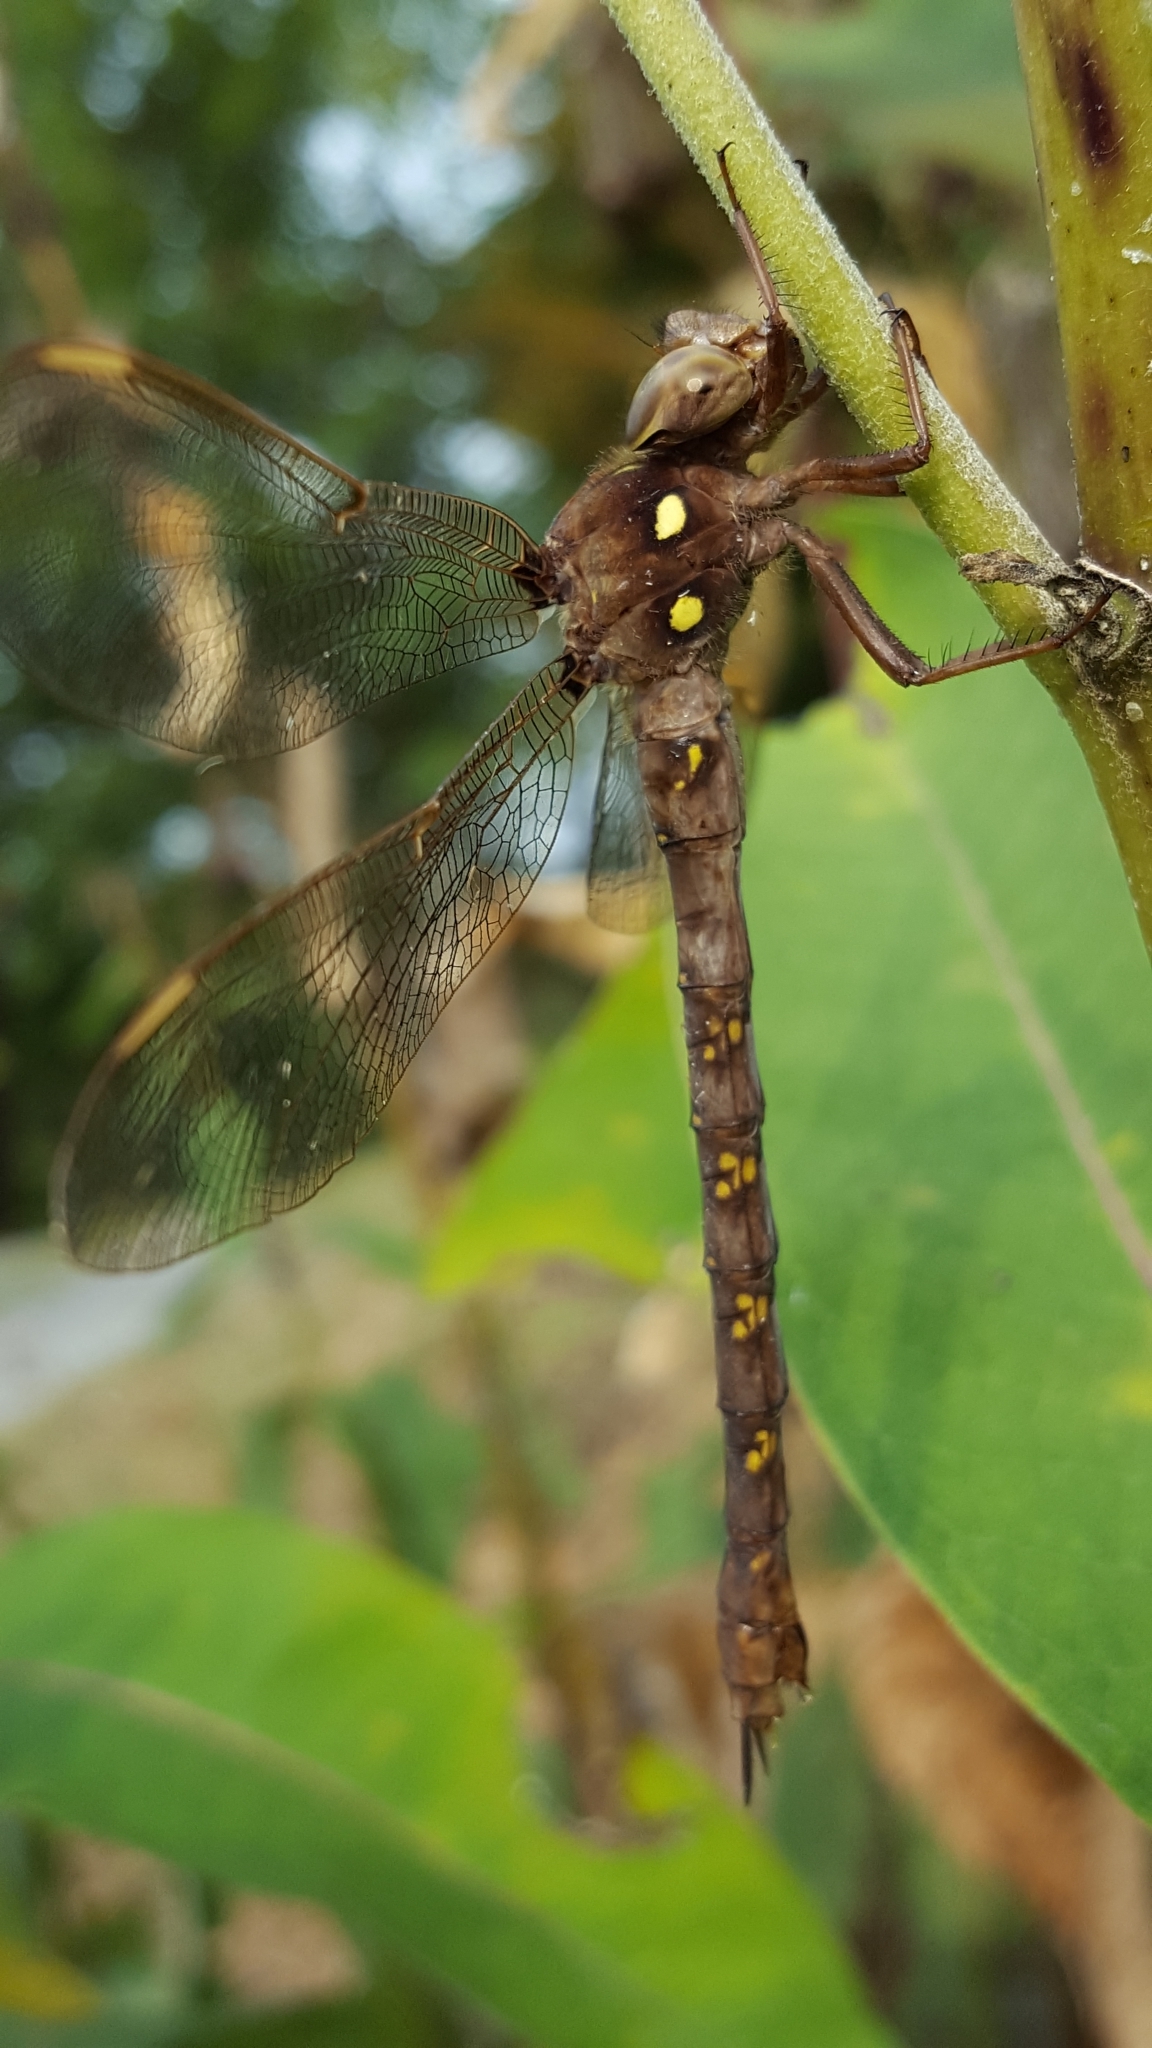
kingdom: Animalia
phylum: Arthropoda
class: Insecta
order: Odonata
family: Aeshnidae
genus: Boyeria
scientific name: Boyeria vinosa
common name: Fawn darner
